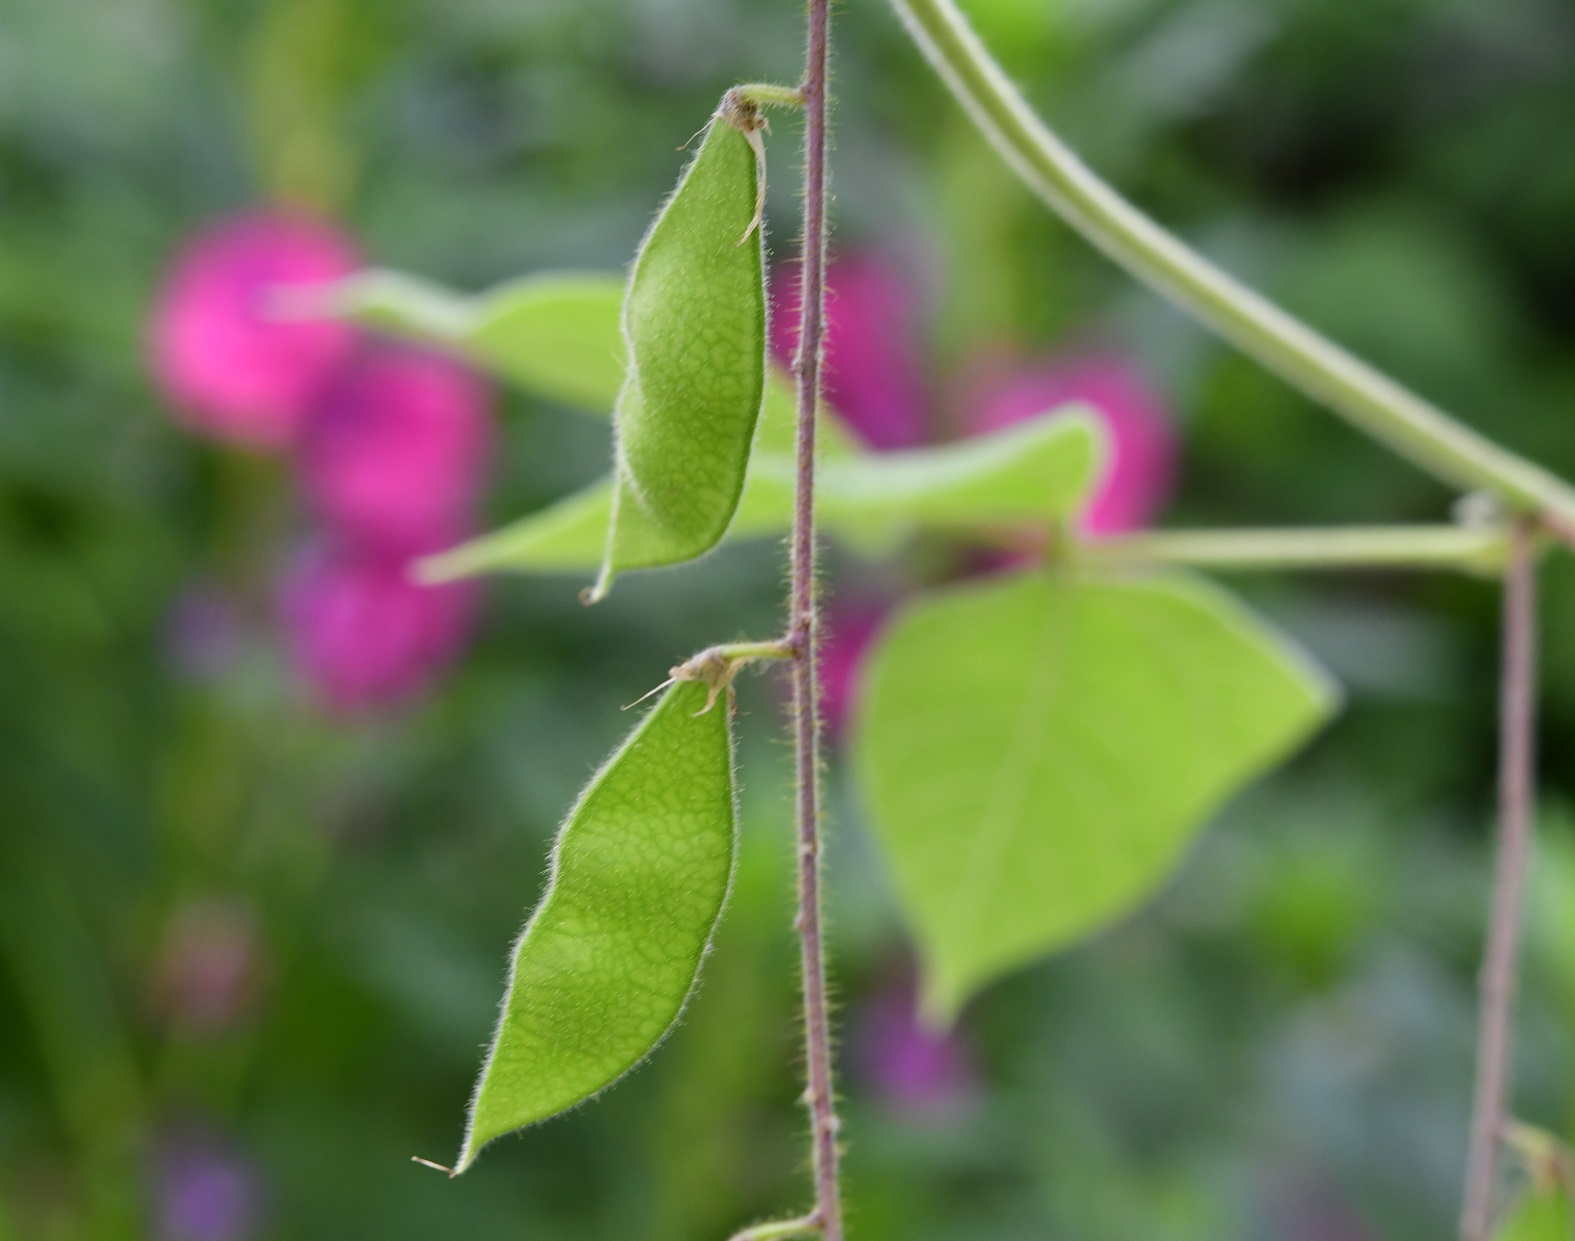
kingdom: Plantae
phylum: Tracheophyta
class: Magnoliopsida
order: Fabales
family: Fabaceae
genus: Rhynchosia
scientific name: Rhynchosia erythrinoides
